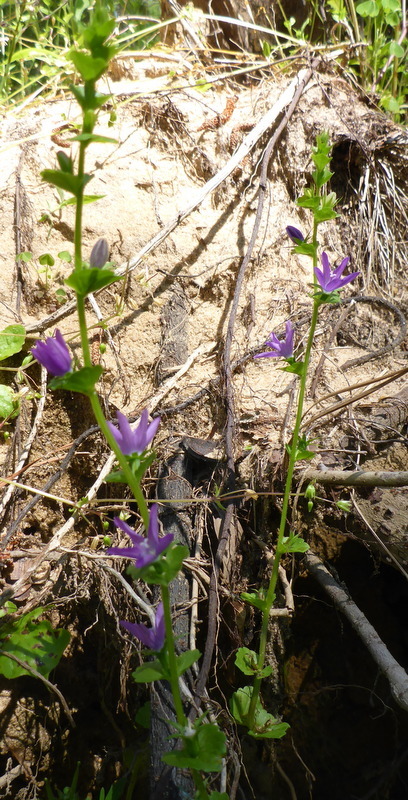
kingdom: Plantae
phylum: Tracheophyta
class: Magnoliopsida
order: Asterales
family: Campanulaceae
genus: Triodanis
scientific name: Triodanis perfoliata
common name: Clasping venus' looking-glass
